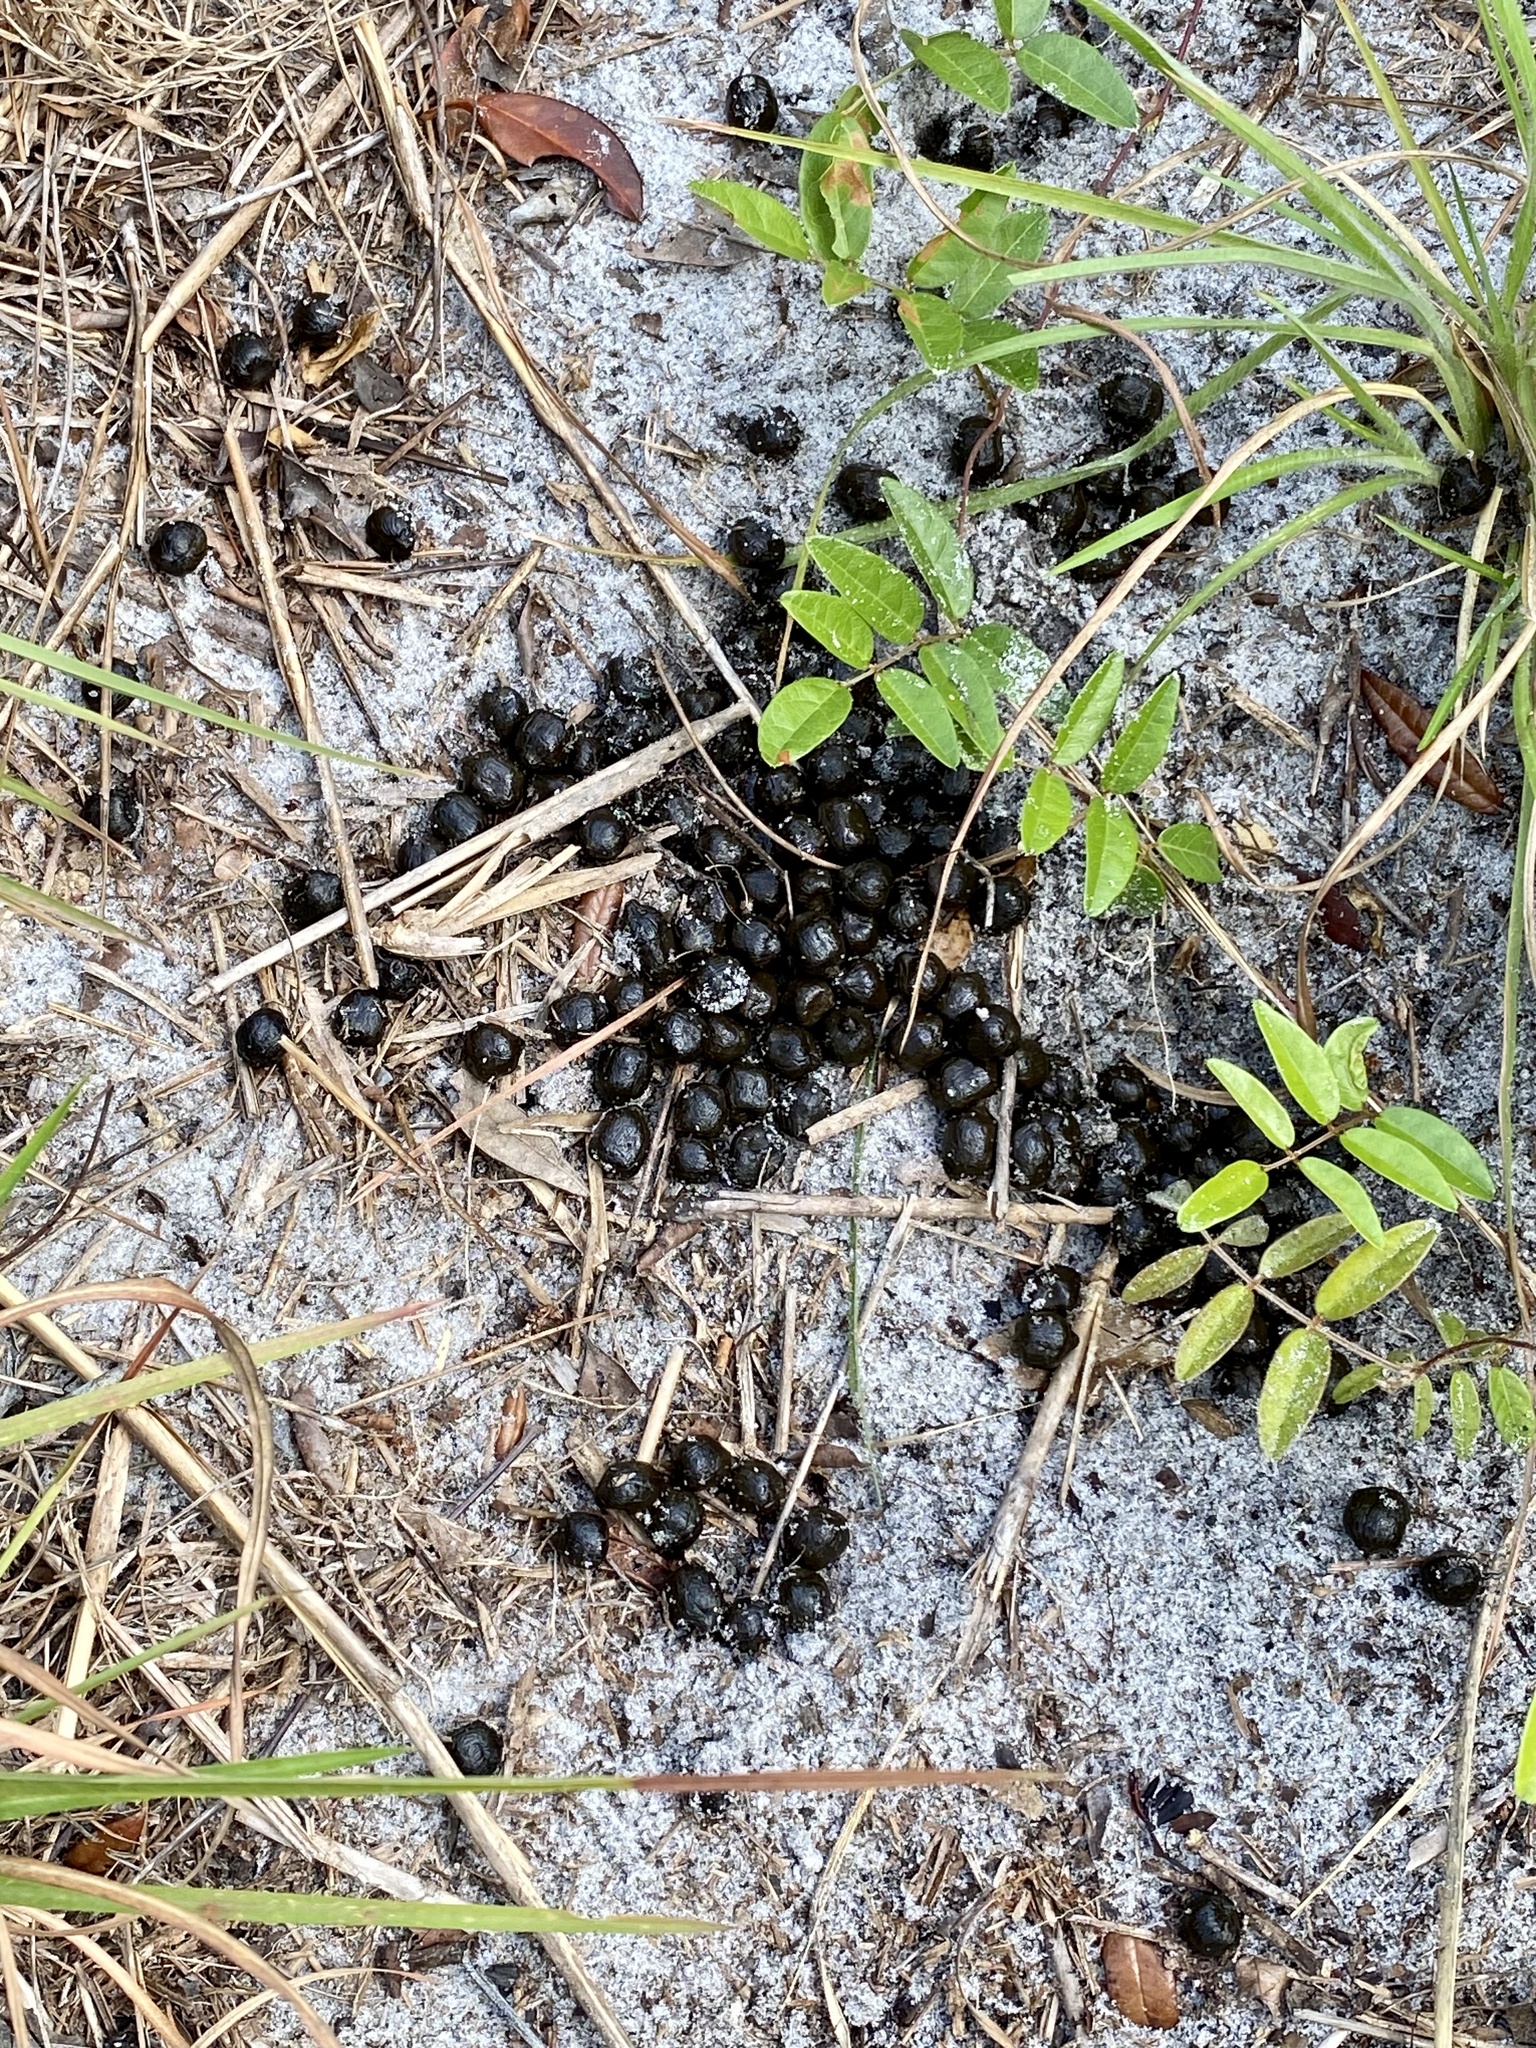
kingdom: Animalia
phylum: Chordata
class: Mammalia
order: Artiodactyla
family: Cervidae
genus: Odocoileus
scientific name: Odocoileus virginianus
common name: White-tailed deer
